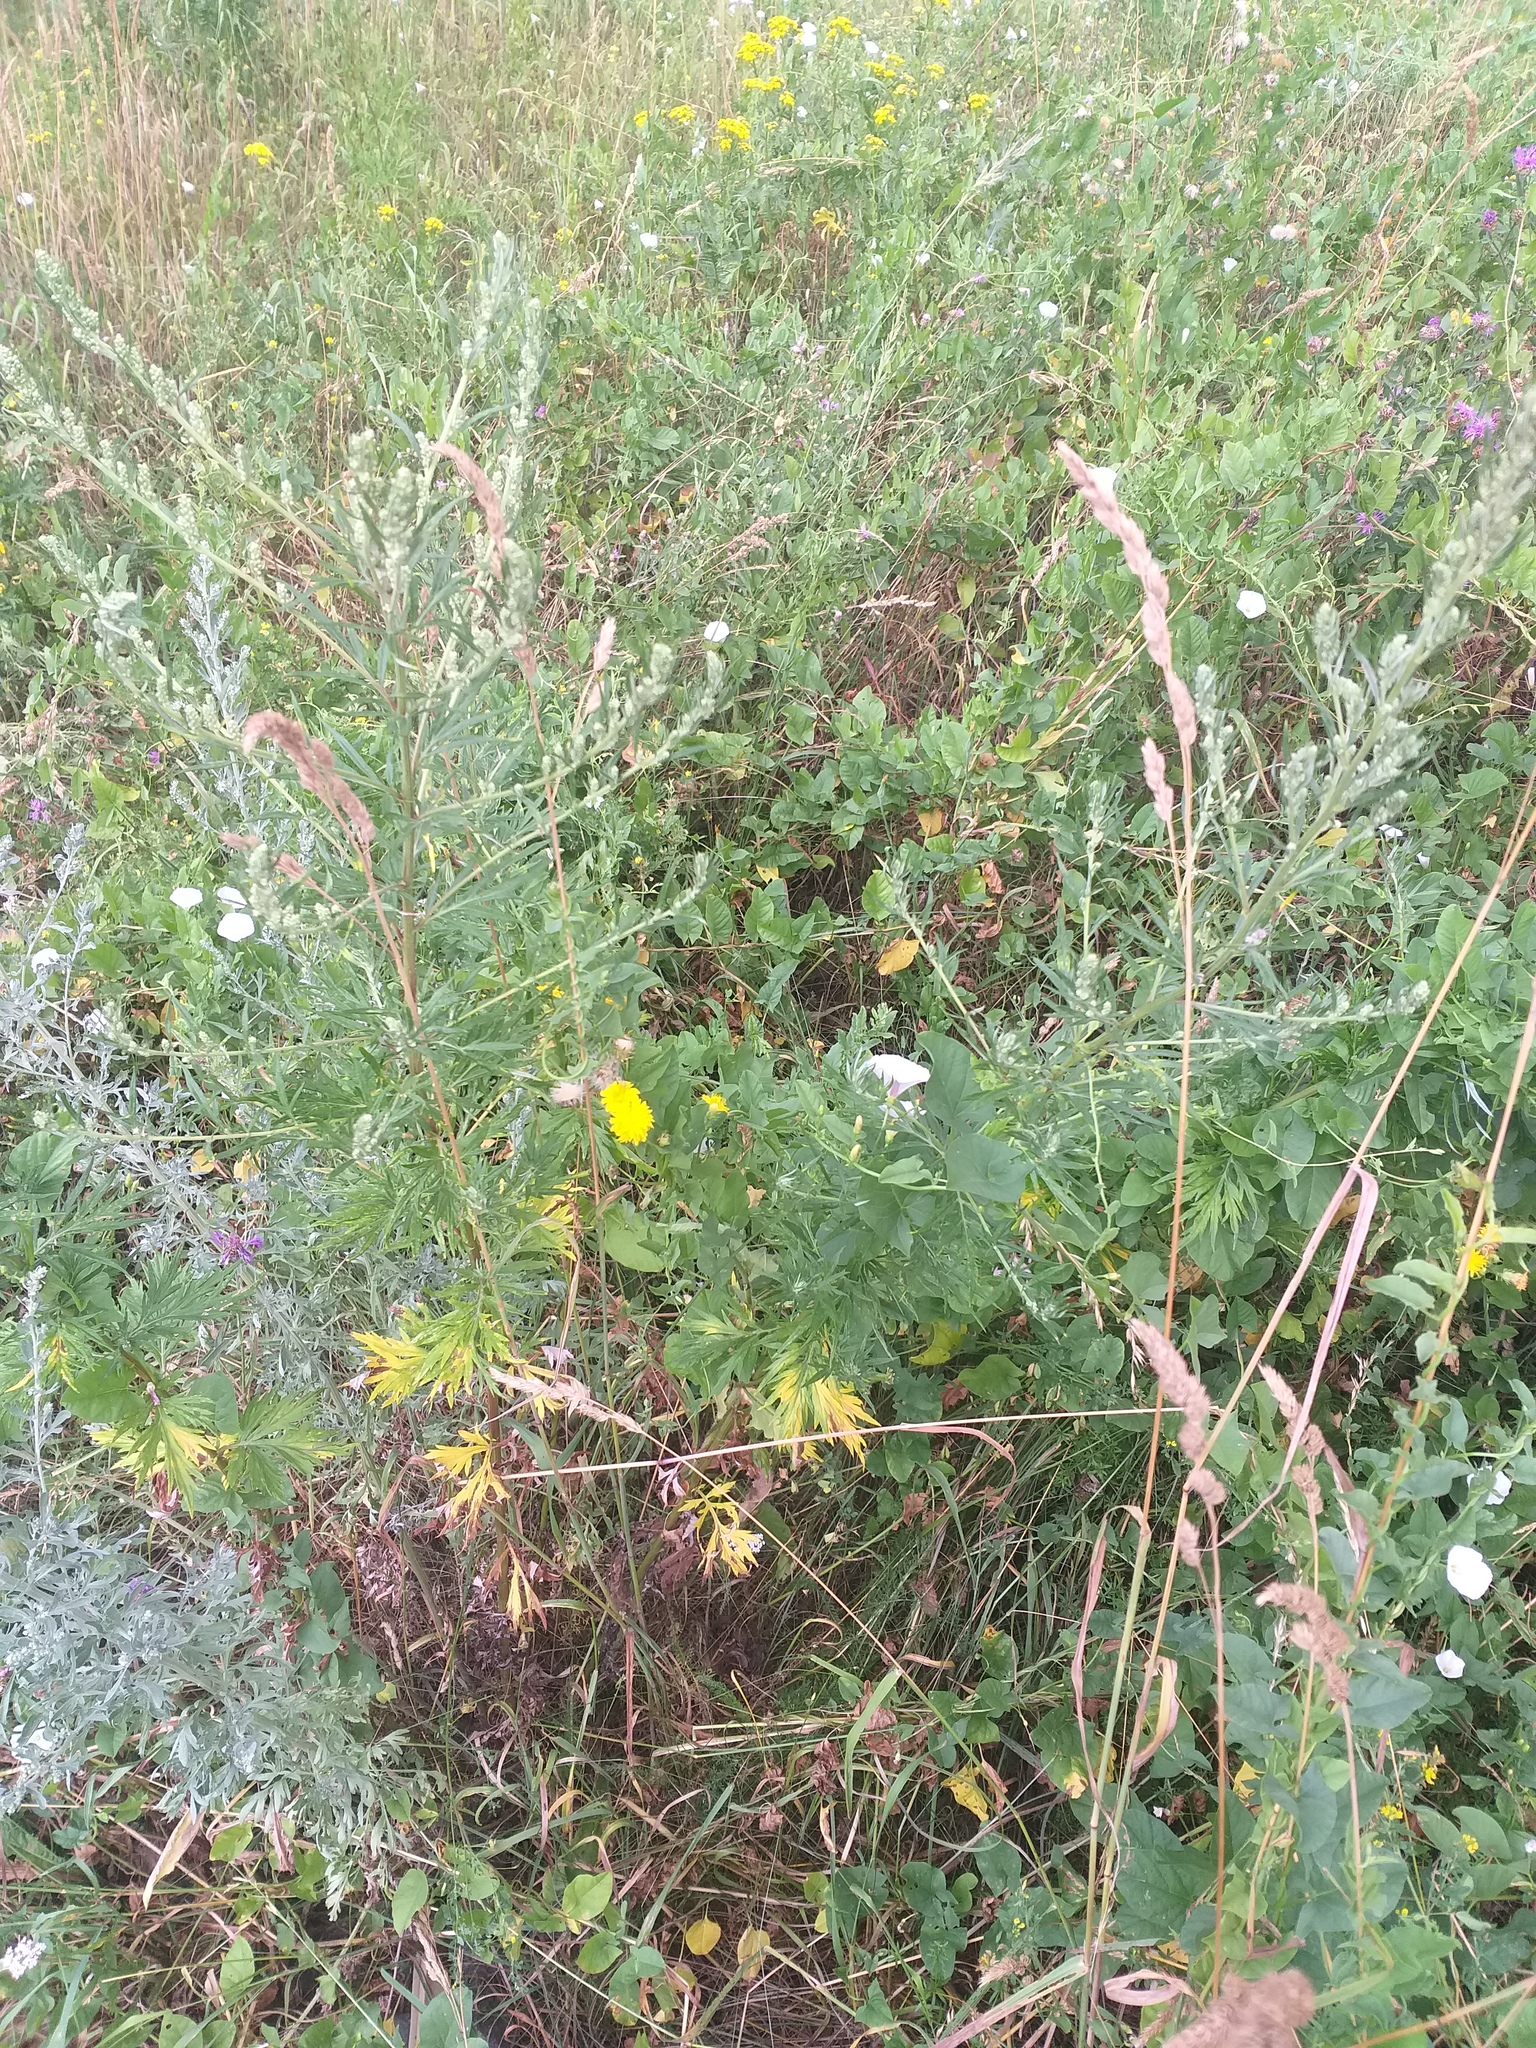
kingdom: Plantae
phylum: Tracheophyta
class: Magnoliopsida
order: Asterales
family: Asteraceae
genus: Artemisia
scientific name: Artemisia vulgaris
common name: Mugwort
